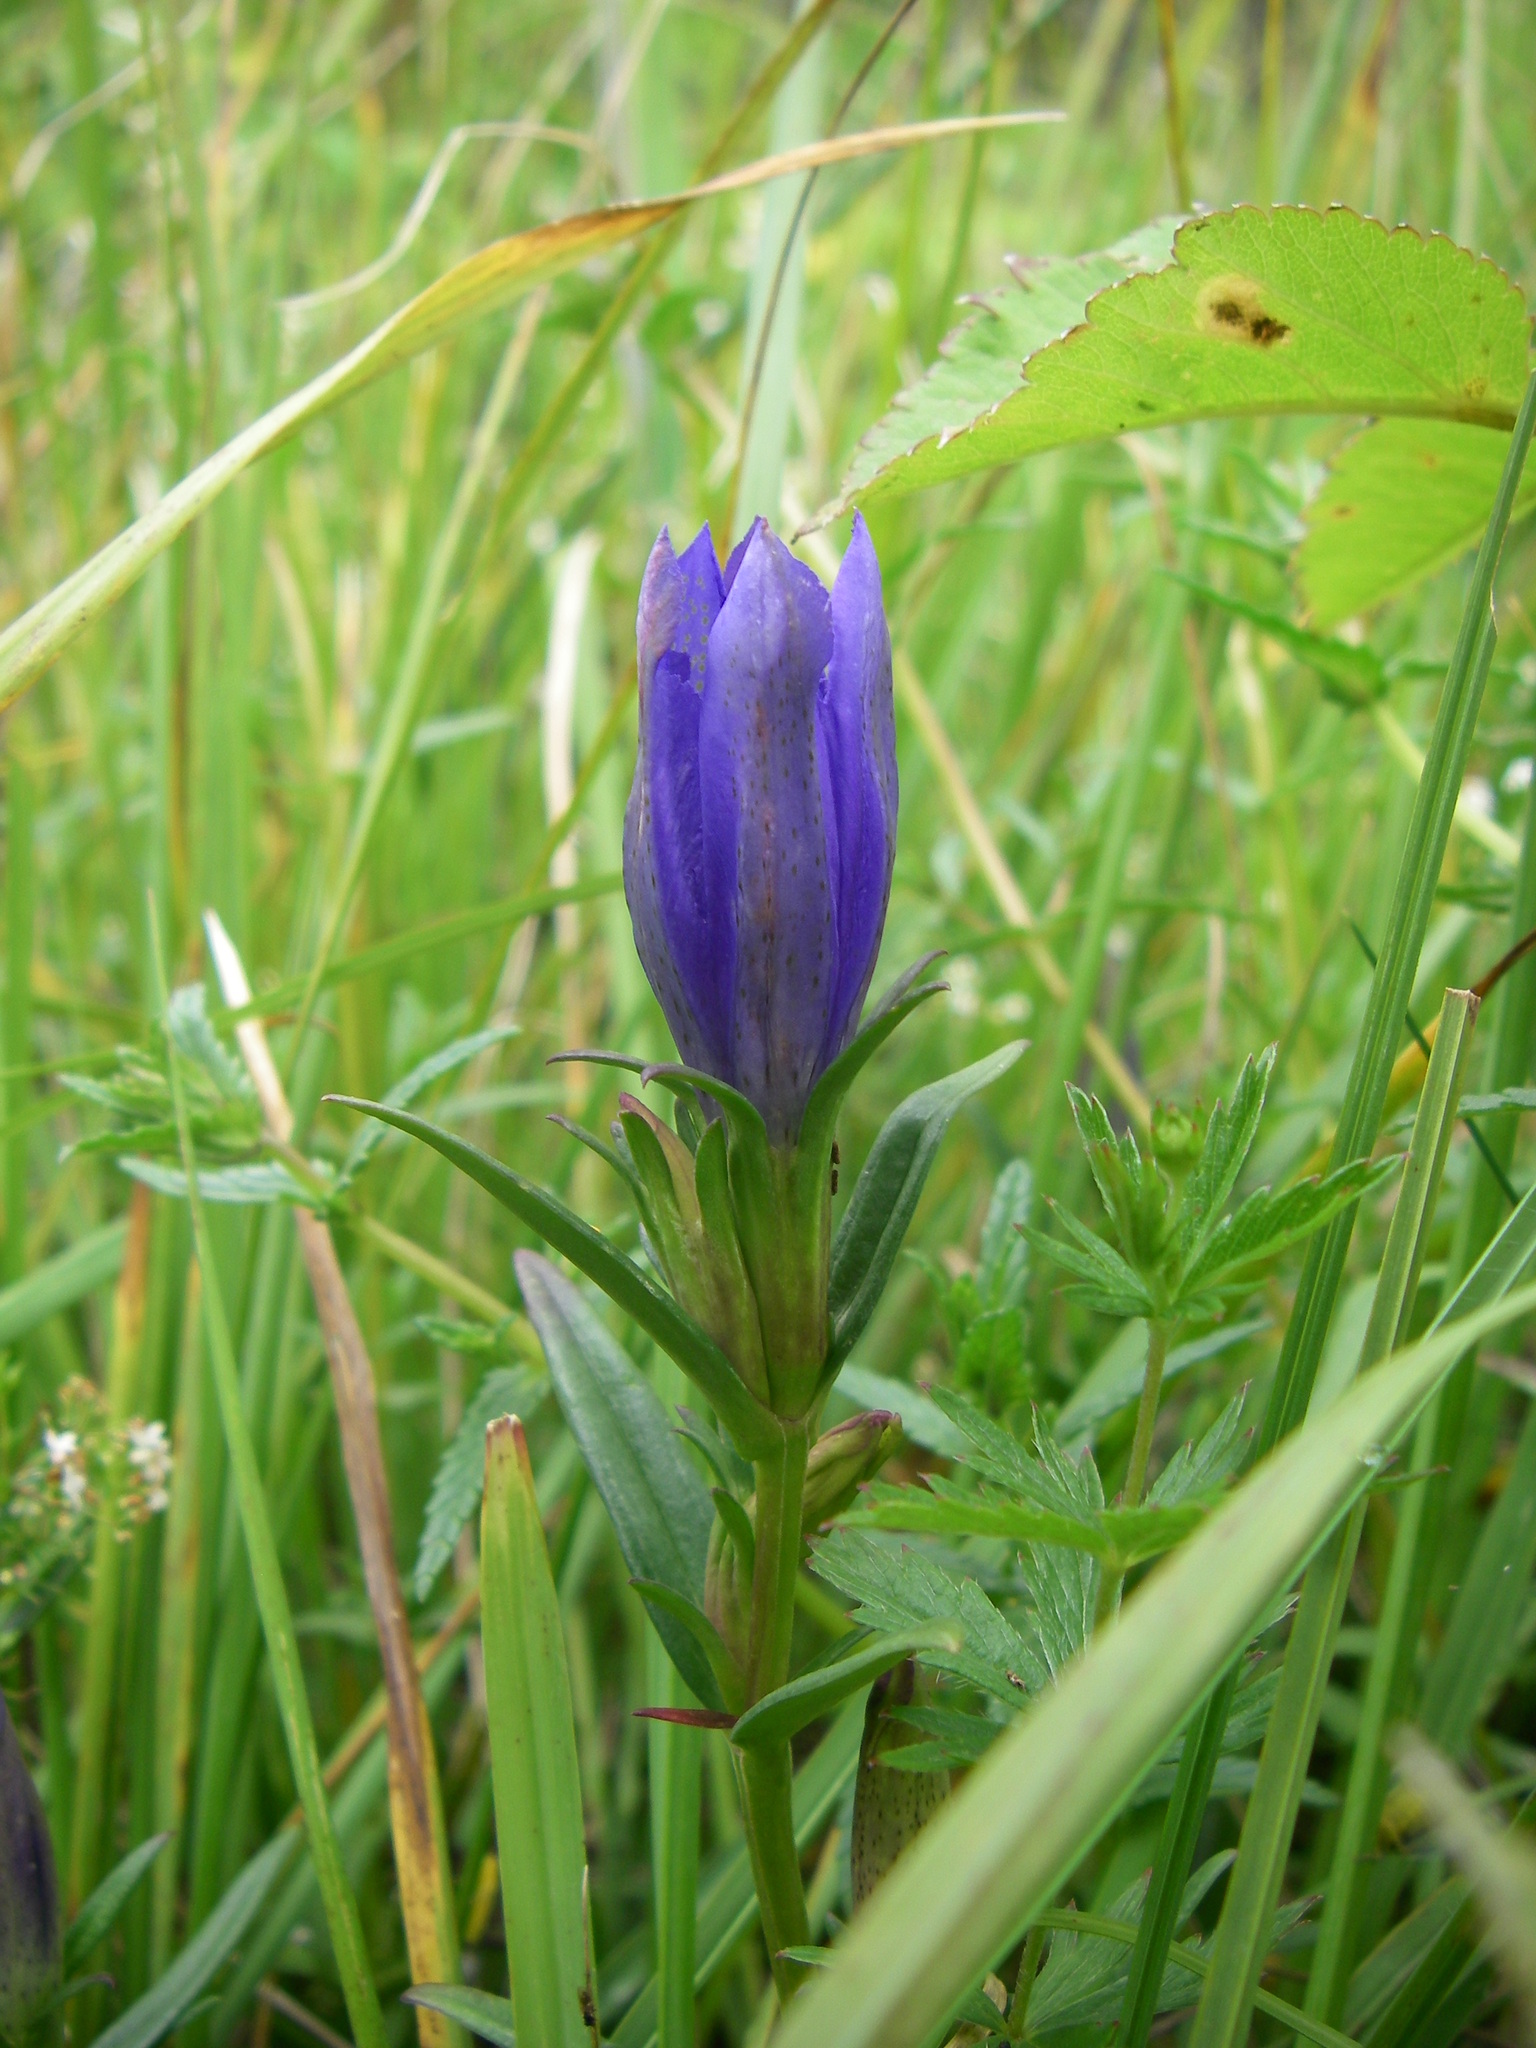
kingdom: Plantae
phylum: Tracheophyta
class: Magnoliopsida
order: Gentianales
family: Gentianaceae
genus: Gentiana
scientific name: Gentiana pneumonanthe
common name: Marsh gentian
